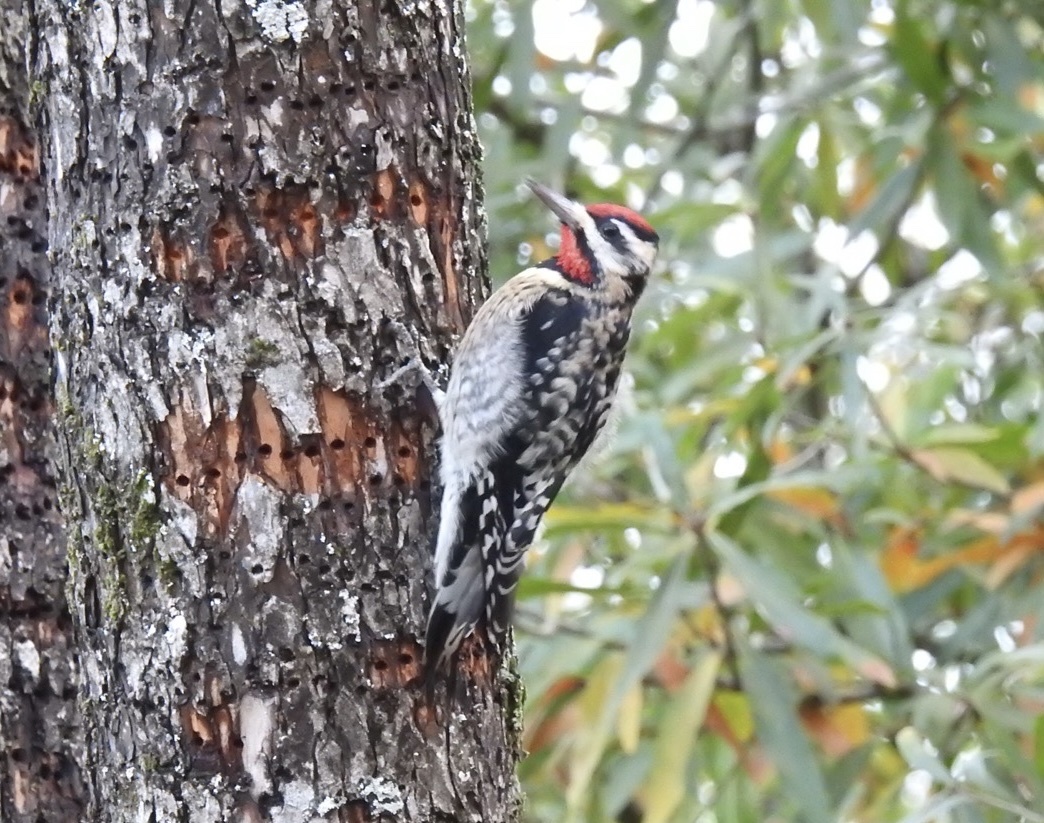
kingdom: Animalia
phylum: Chordata
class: Aves
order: Piciformes
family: Picidae
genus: Sphyrapicus
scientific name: Sphyrapicus varius
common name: Yellow-bellied sapsucker
